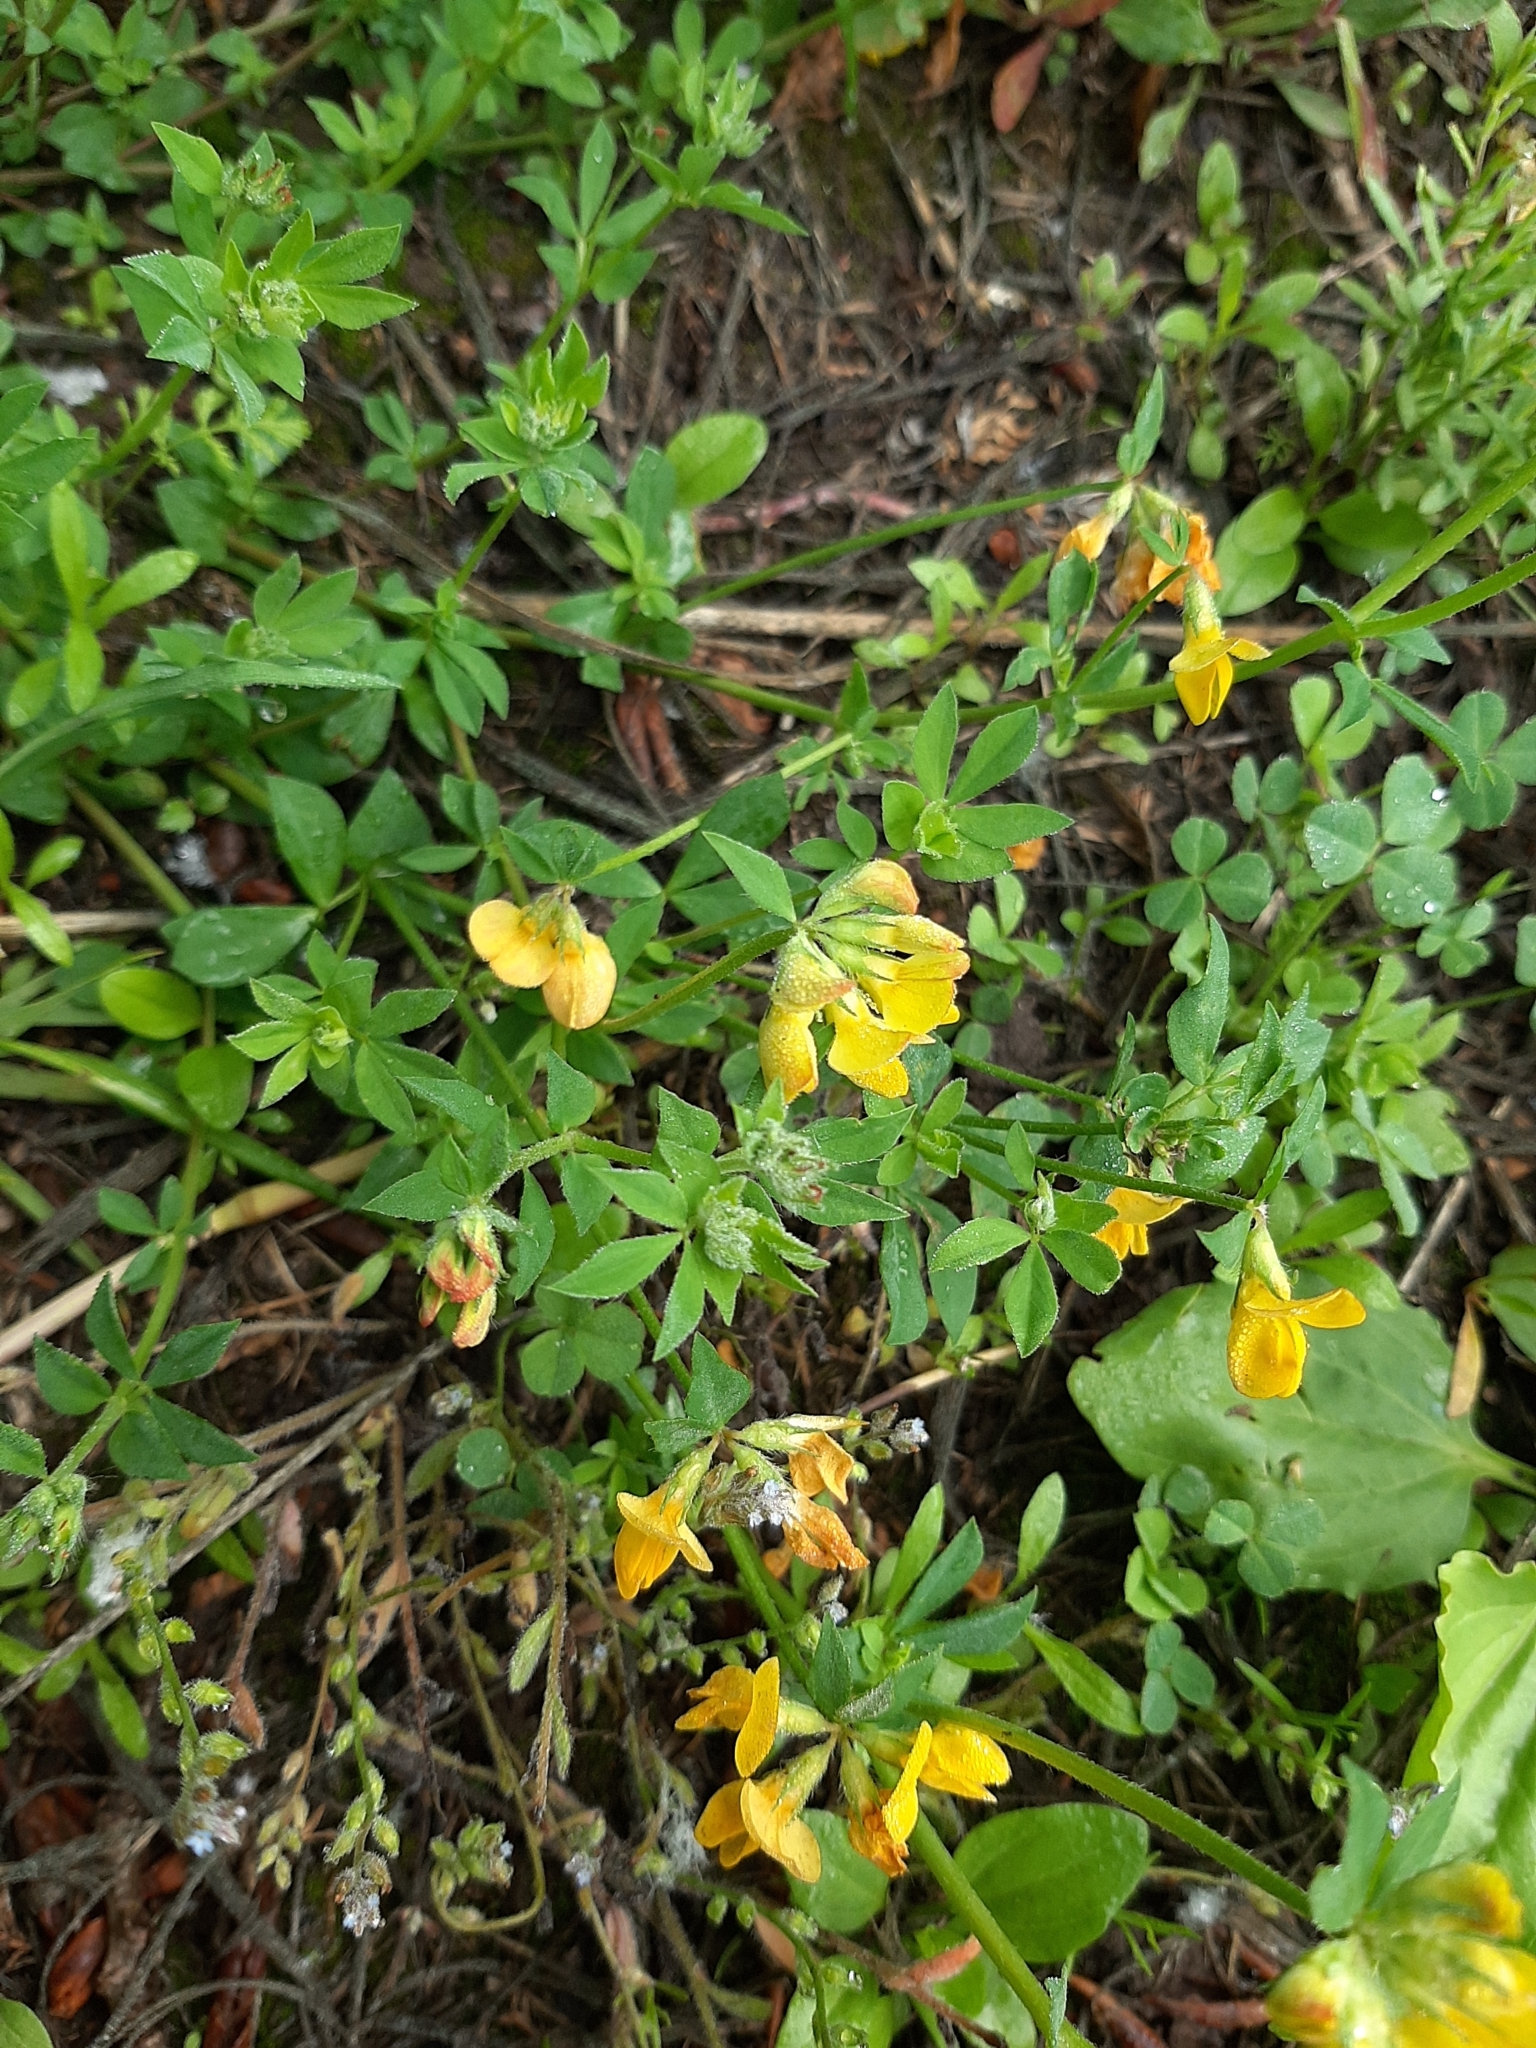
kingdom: Plantae
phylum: Tracheophyta
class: Magnoliopsida
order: Fabales
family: Fabaceae
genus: Lotus
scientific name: Lotus corniculatus
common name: Common bird's-foot-trefoil
